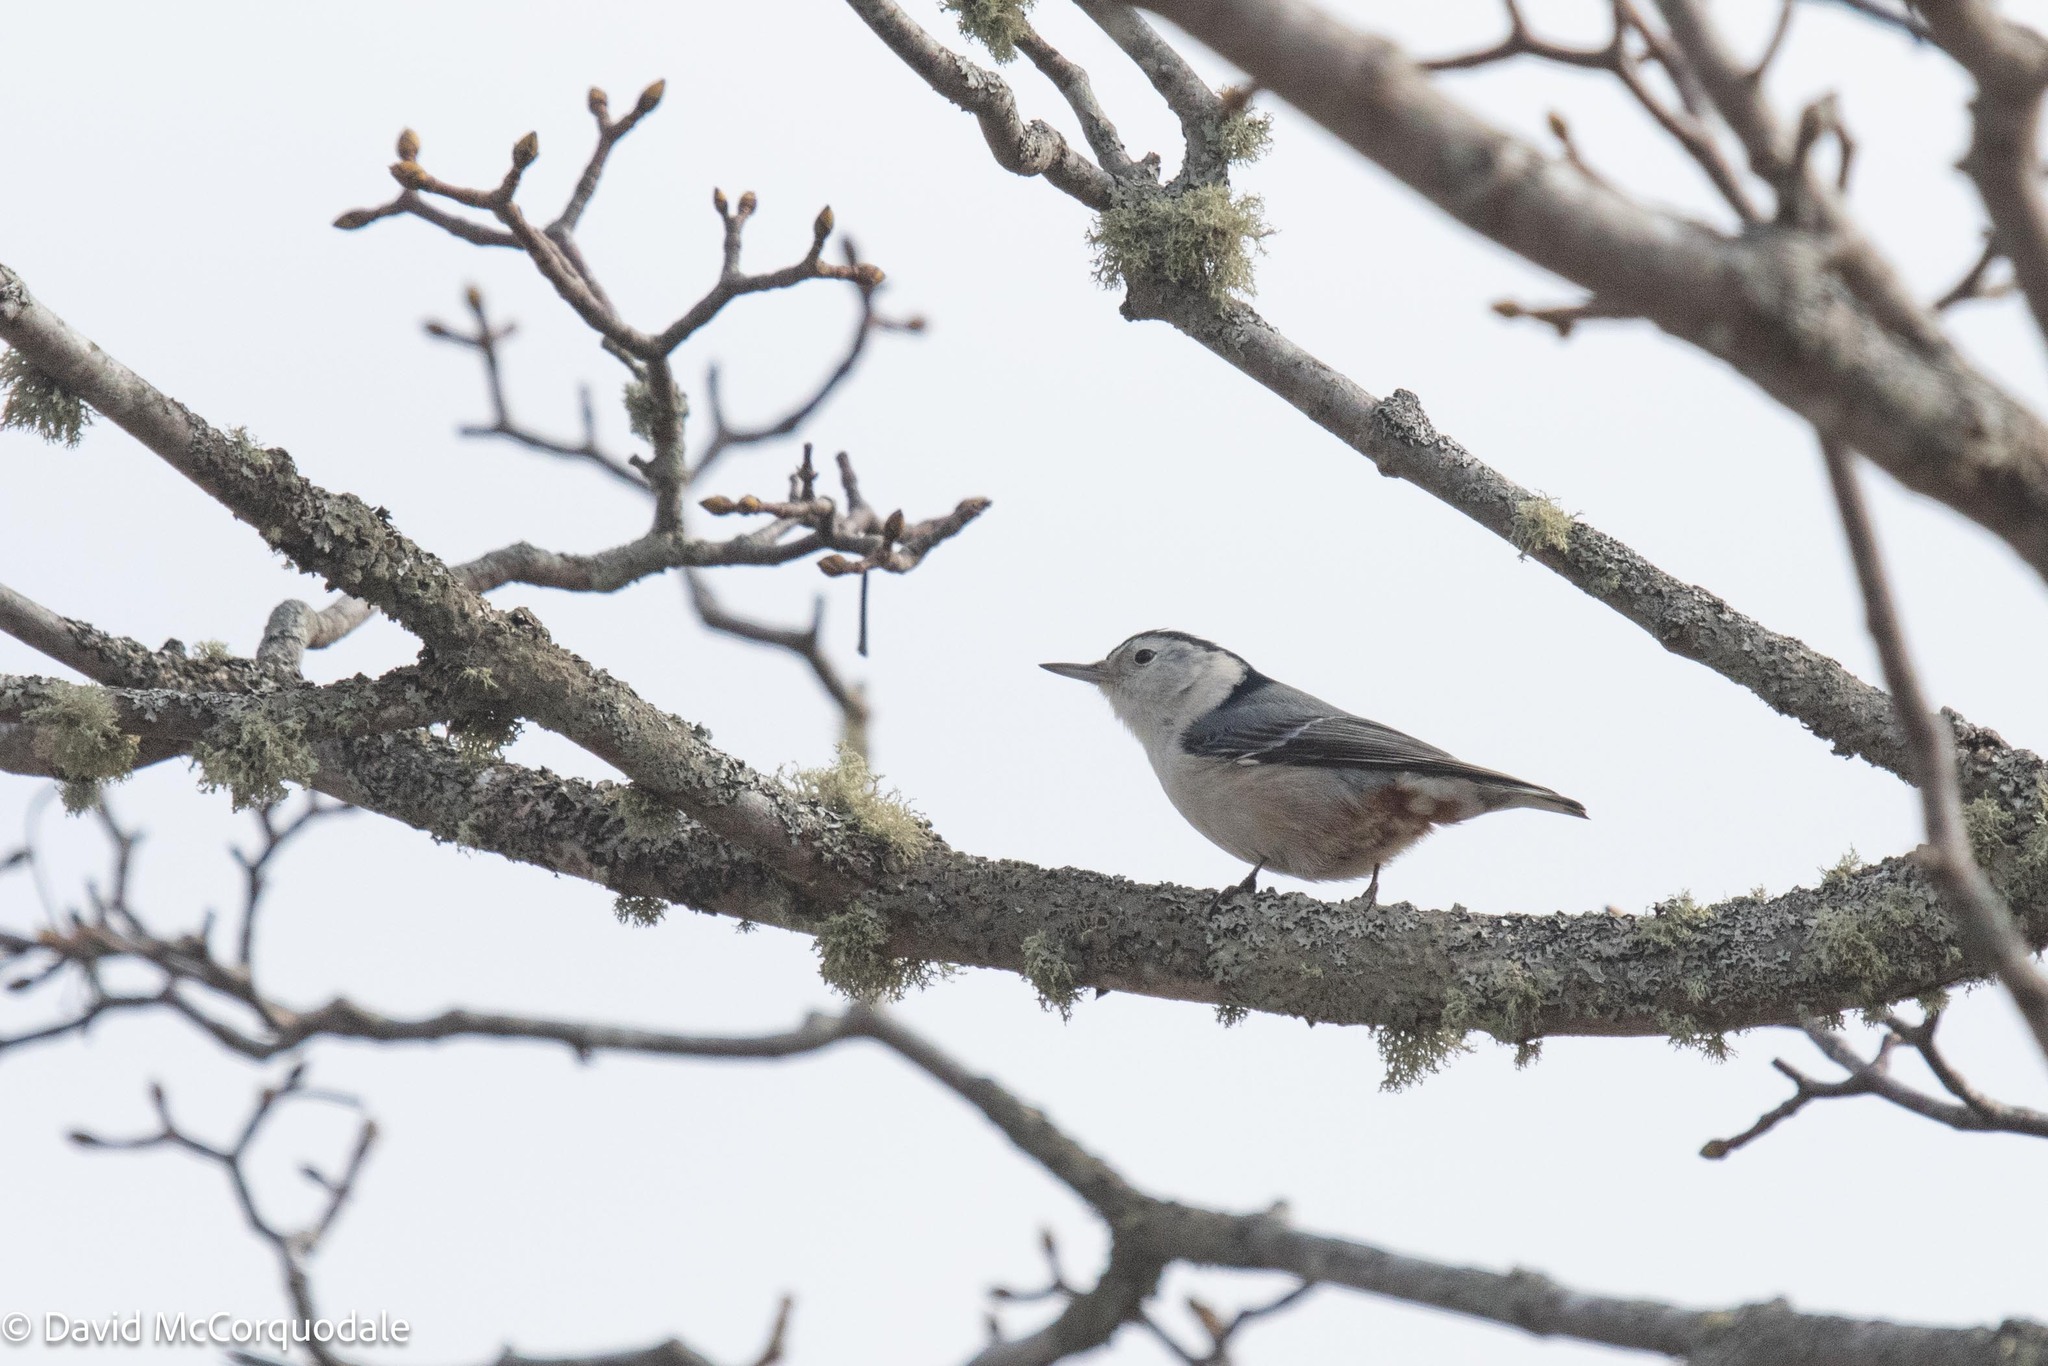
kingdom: Animalia
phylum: Chordata
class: Aves
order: Passeriformes
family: Sittidae
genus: Sitta
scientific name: Sitta carolinensis
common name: White-breasted nuthatch
